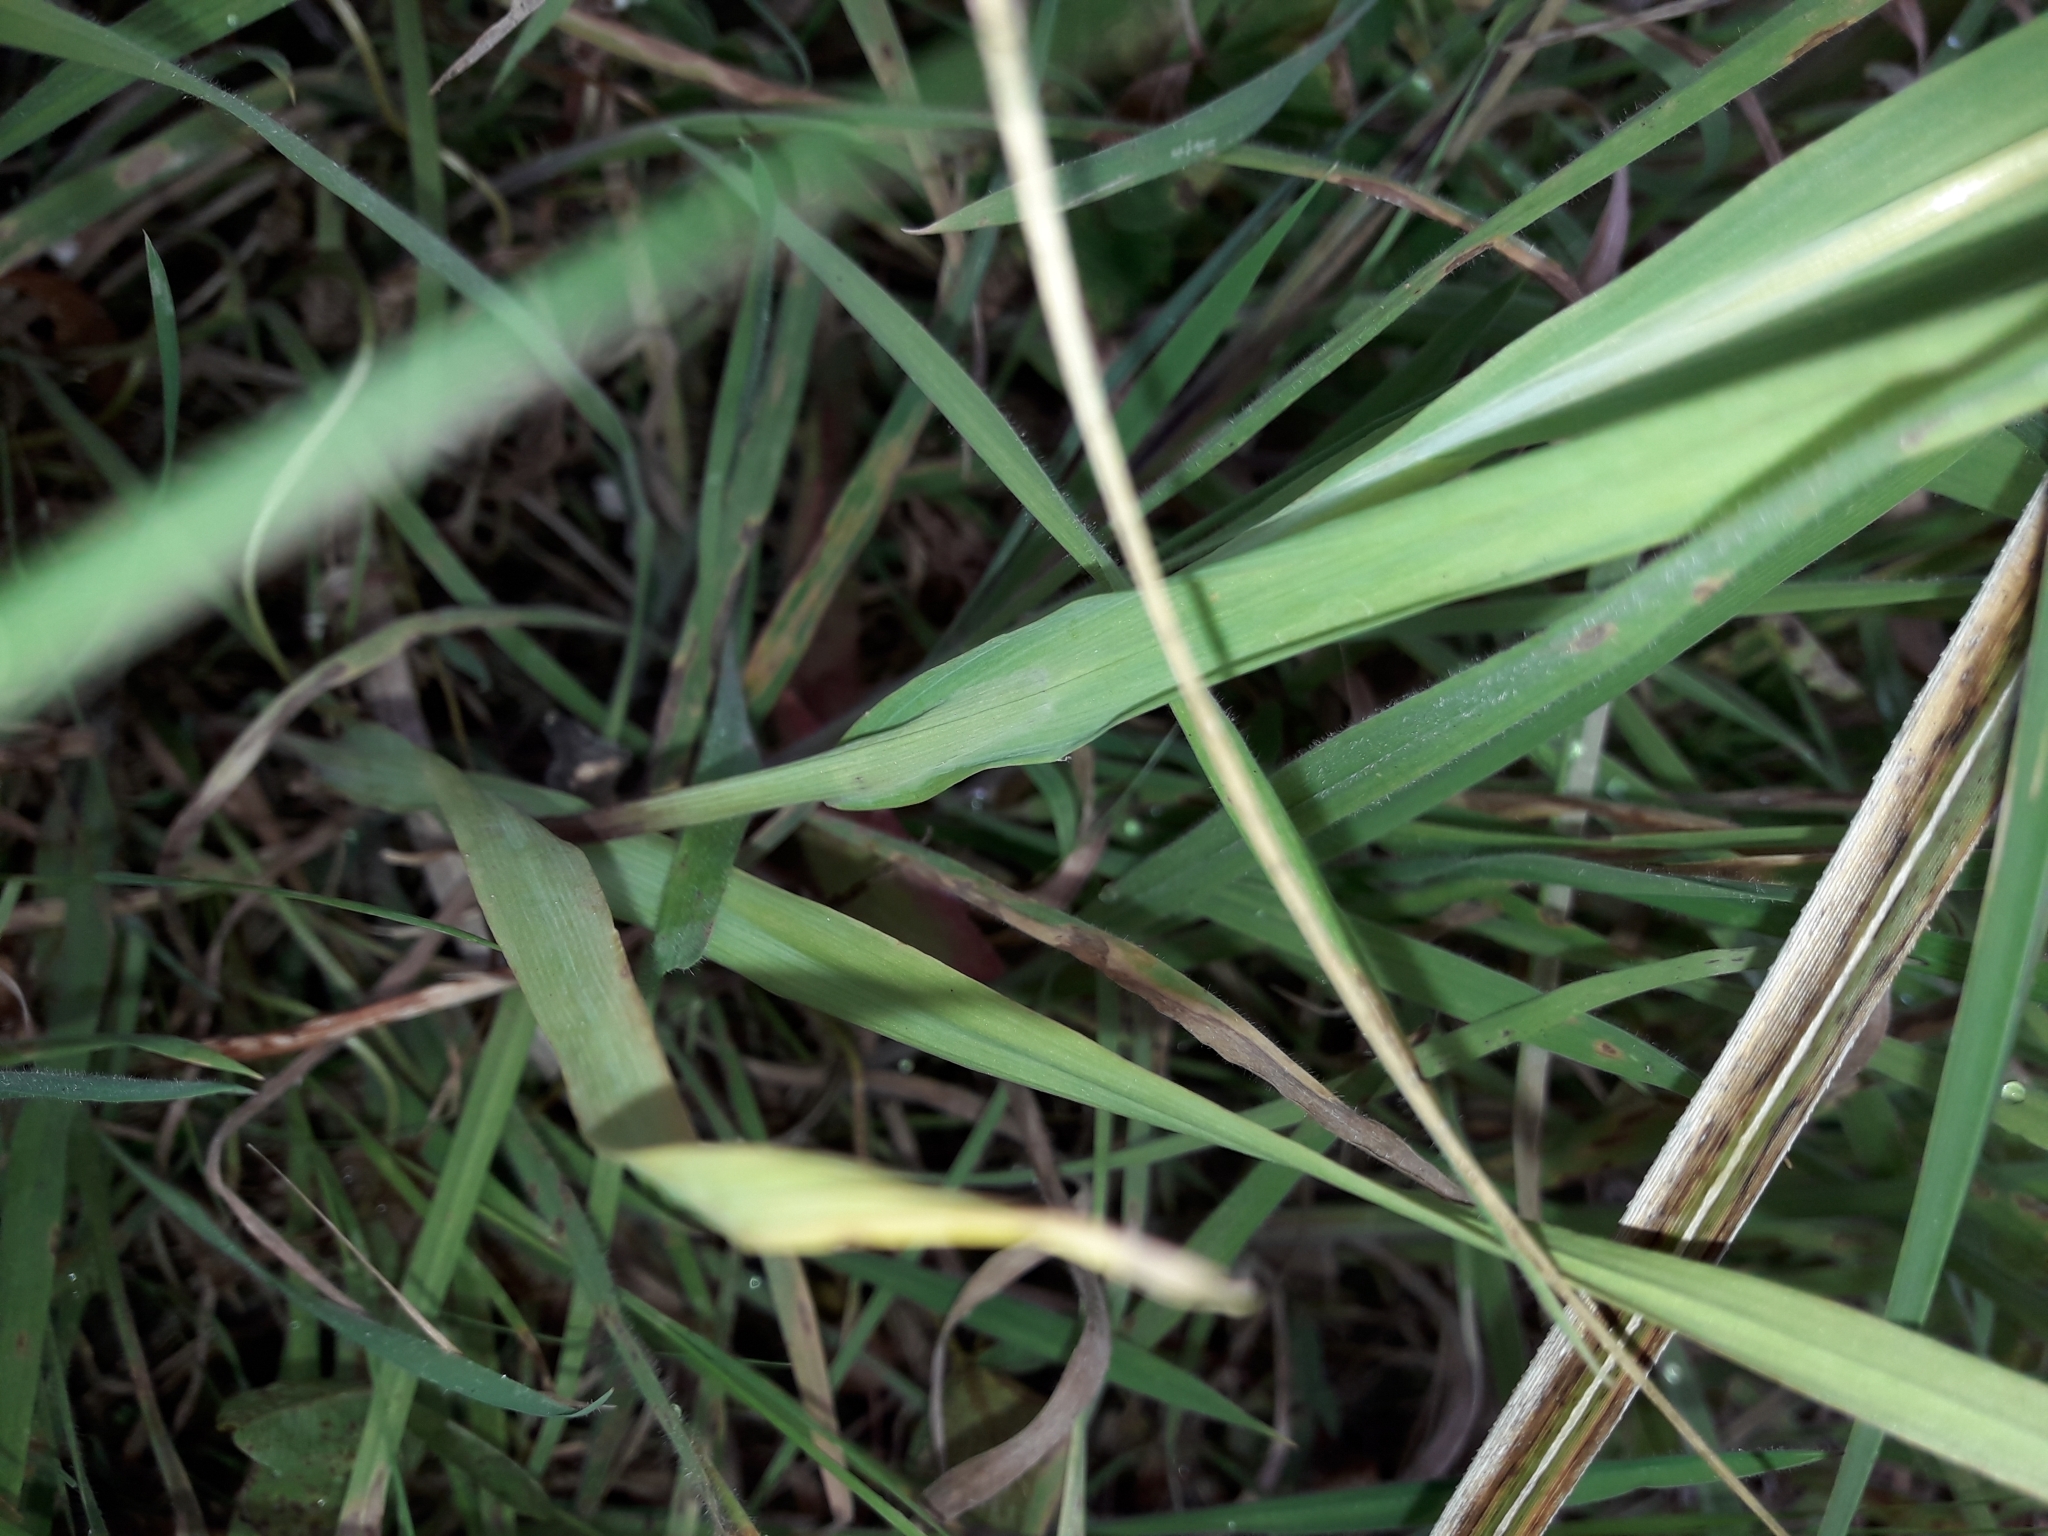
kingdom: Plantae
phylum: Tracheophyta
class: Liliopsida
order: Poales
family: Poaceae
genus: Briza
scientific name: Briza minor
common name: Lesser quaking-grass
